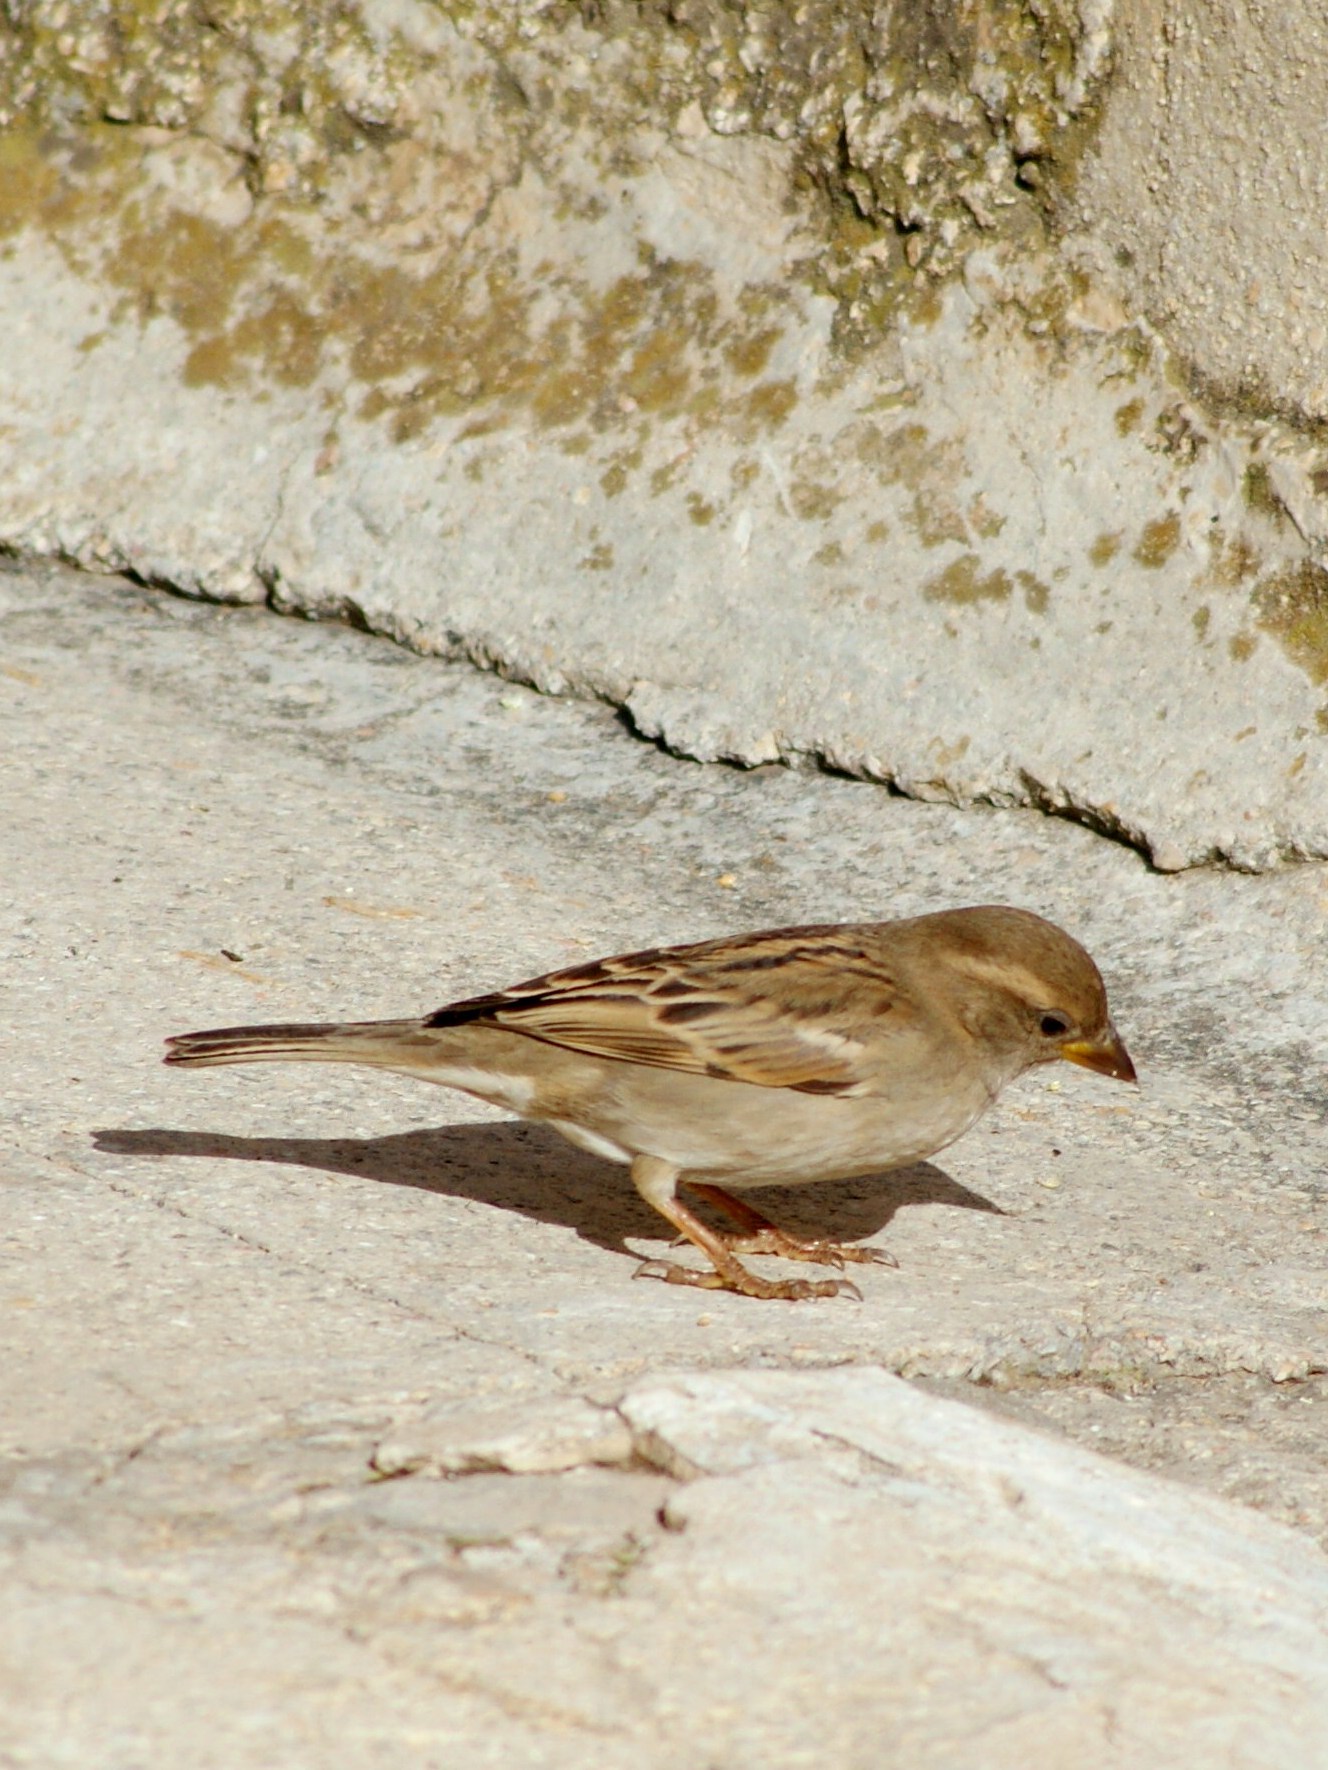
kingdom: Animalia
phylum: Chordata
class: Aves
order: Passeriformes
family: Passeridae
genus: Passer
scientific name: Passer domesticus
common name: House sparrow
